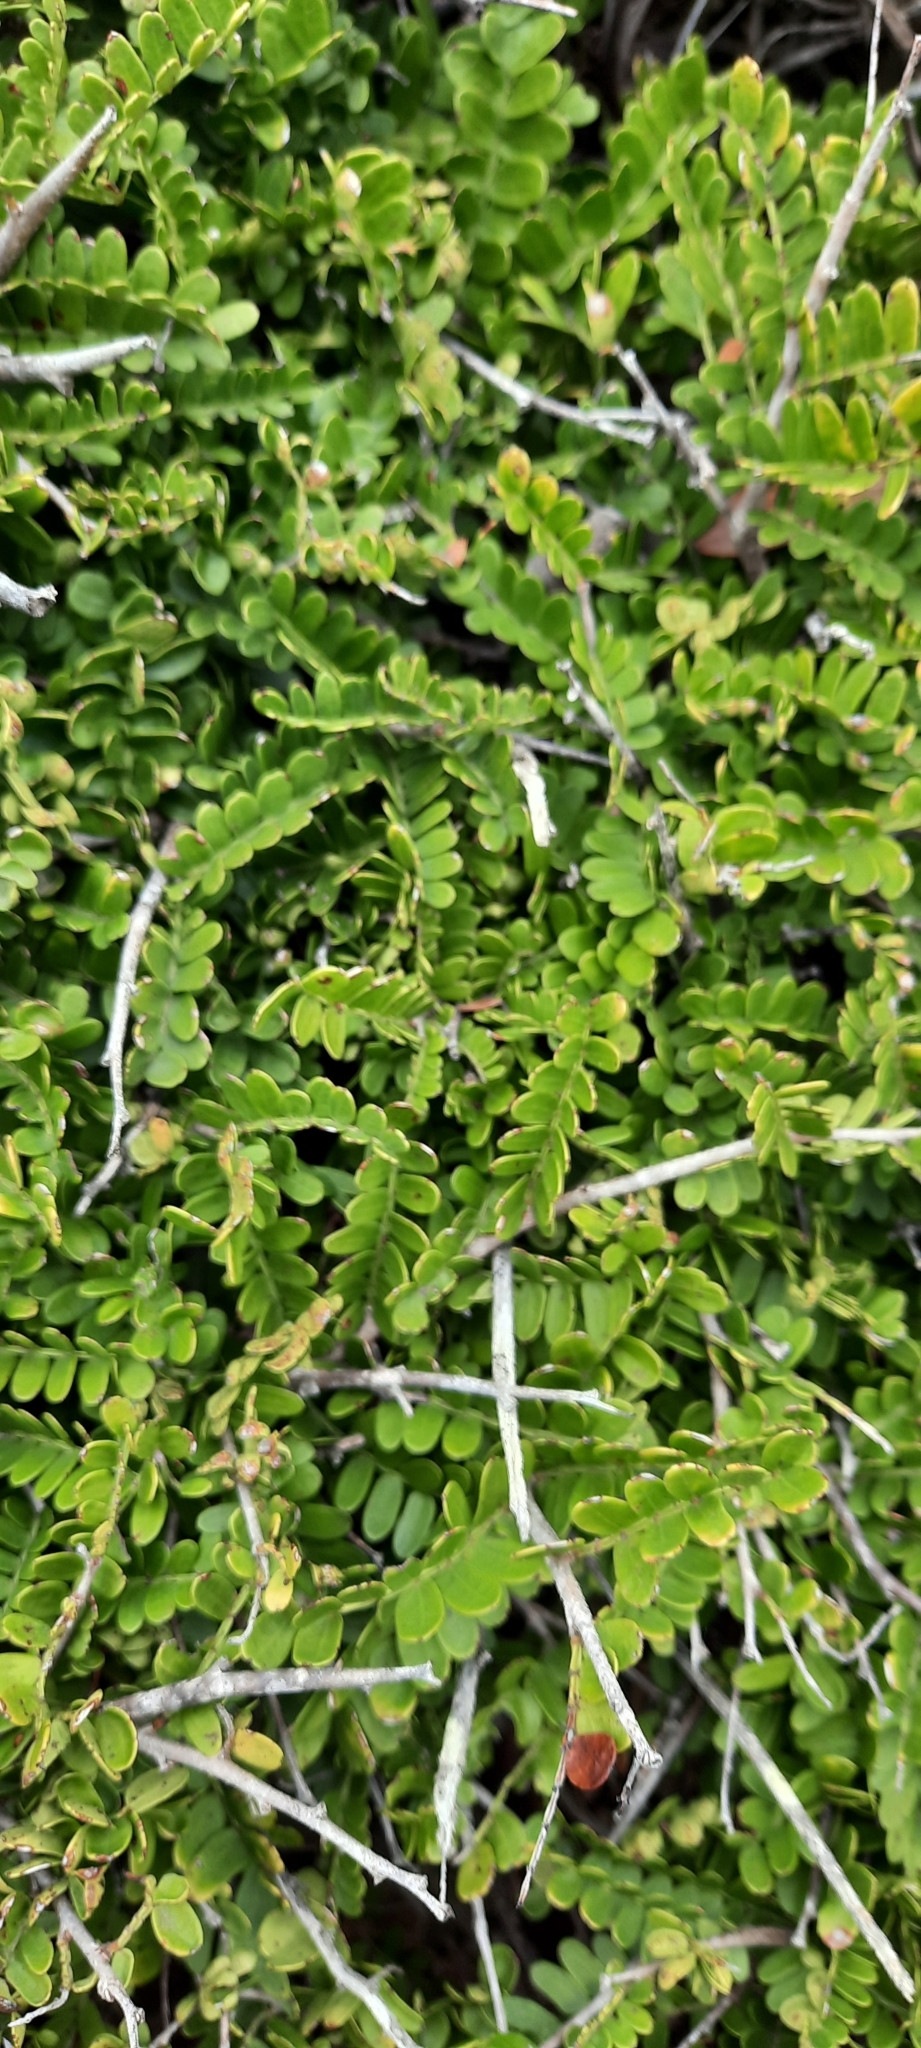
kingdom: Plantae
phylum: Tracheophyta
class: Magnoliopsida
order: Fabales
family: Fabaceae
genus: Schotia
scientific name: Schotia afra
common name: Hottentot's bean
